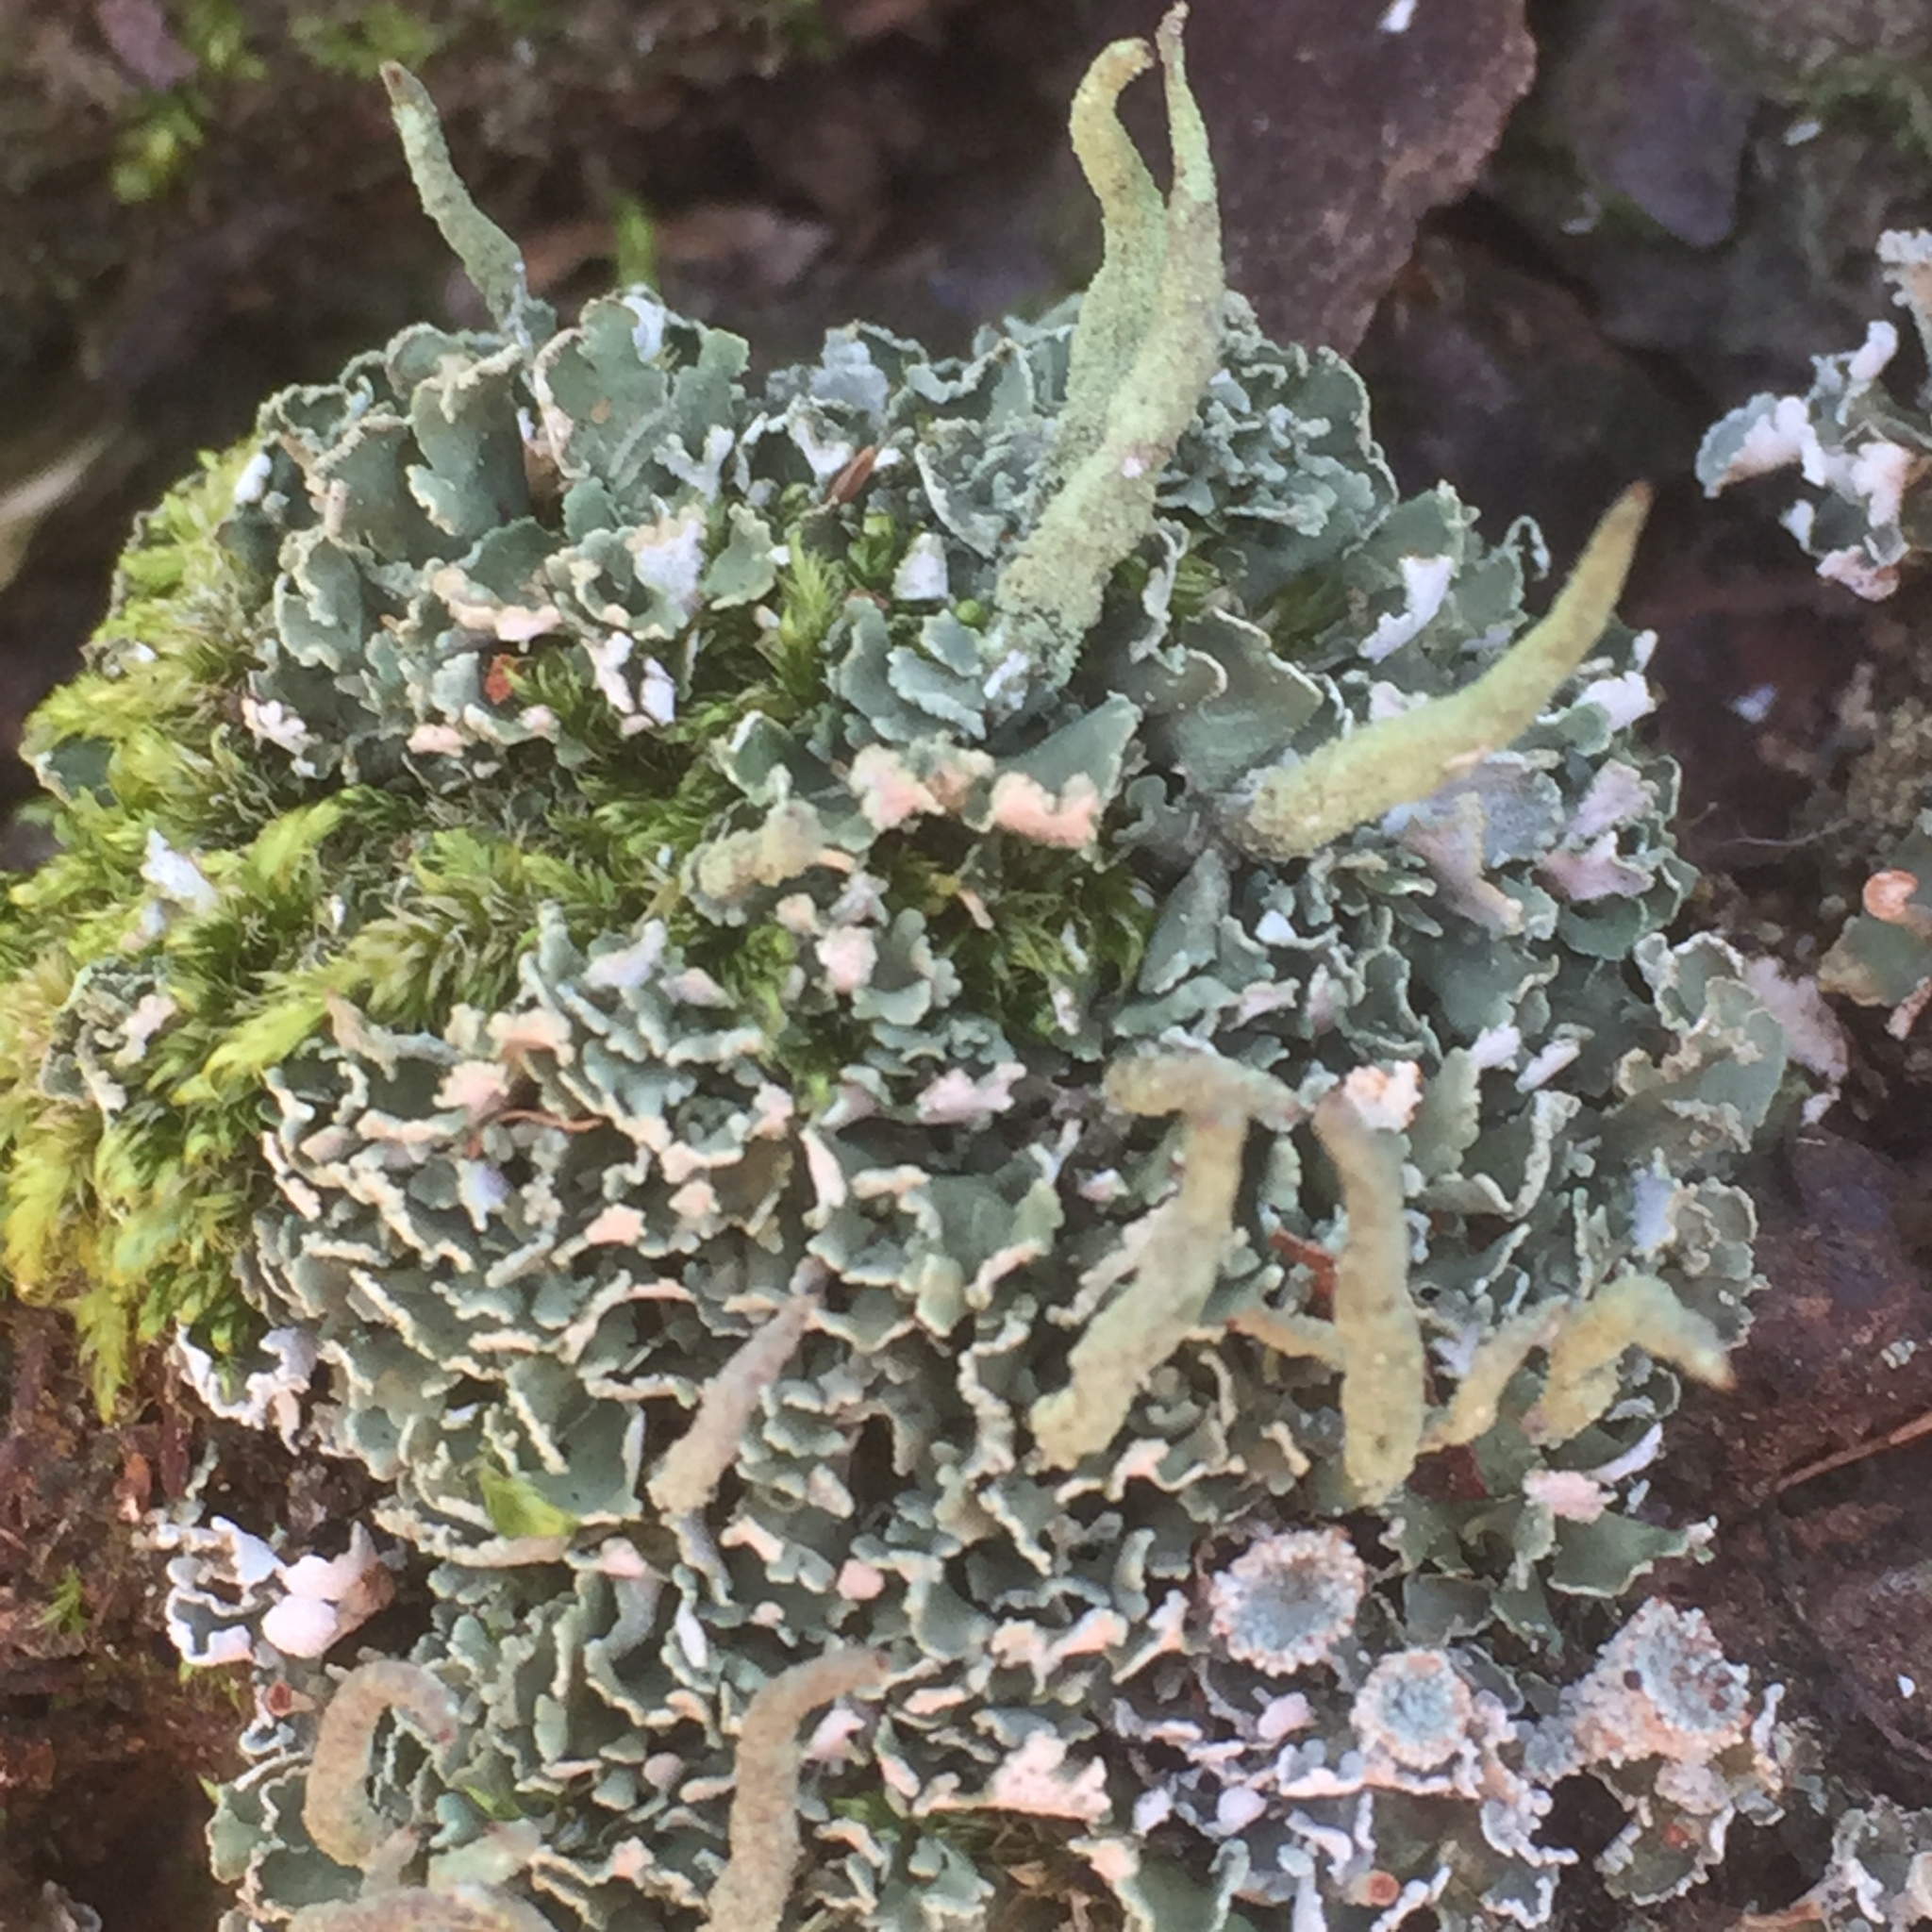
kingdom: Fungi
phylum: Ascomycota
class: Lecanoromycetes
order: Lecanorales
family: Cladoniaceae
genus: Cladonia
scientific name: Cladonia coniocraea
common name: Common powderhorn
